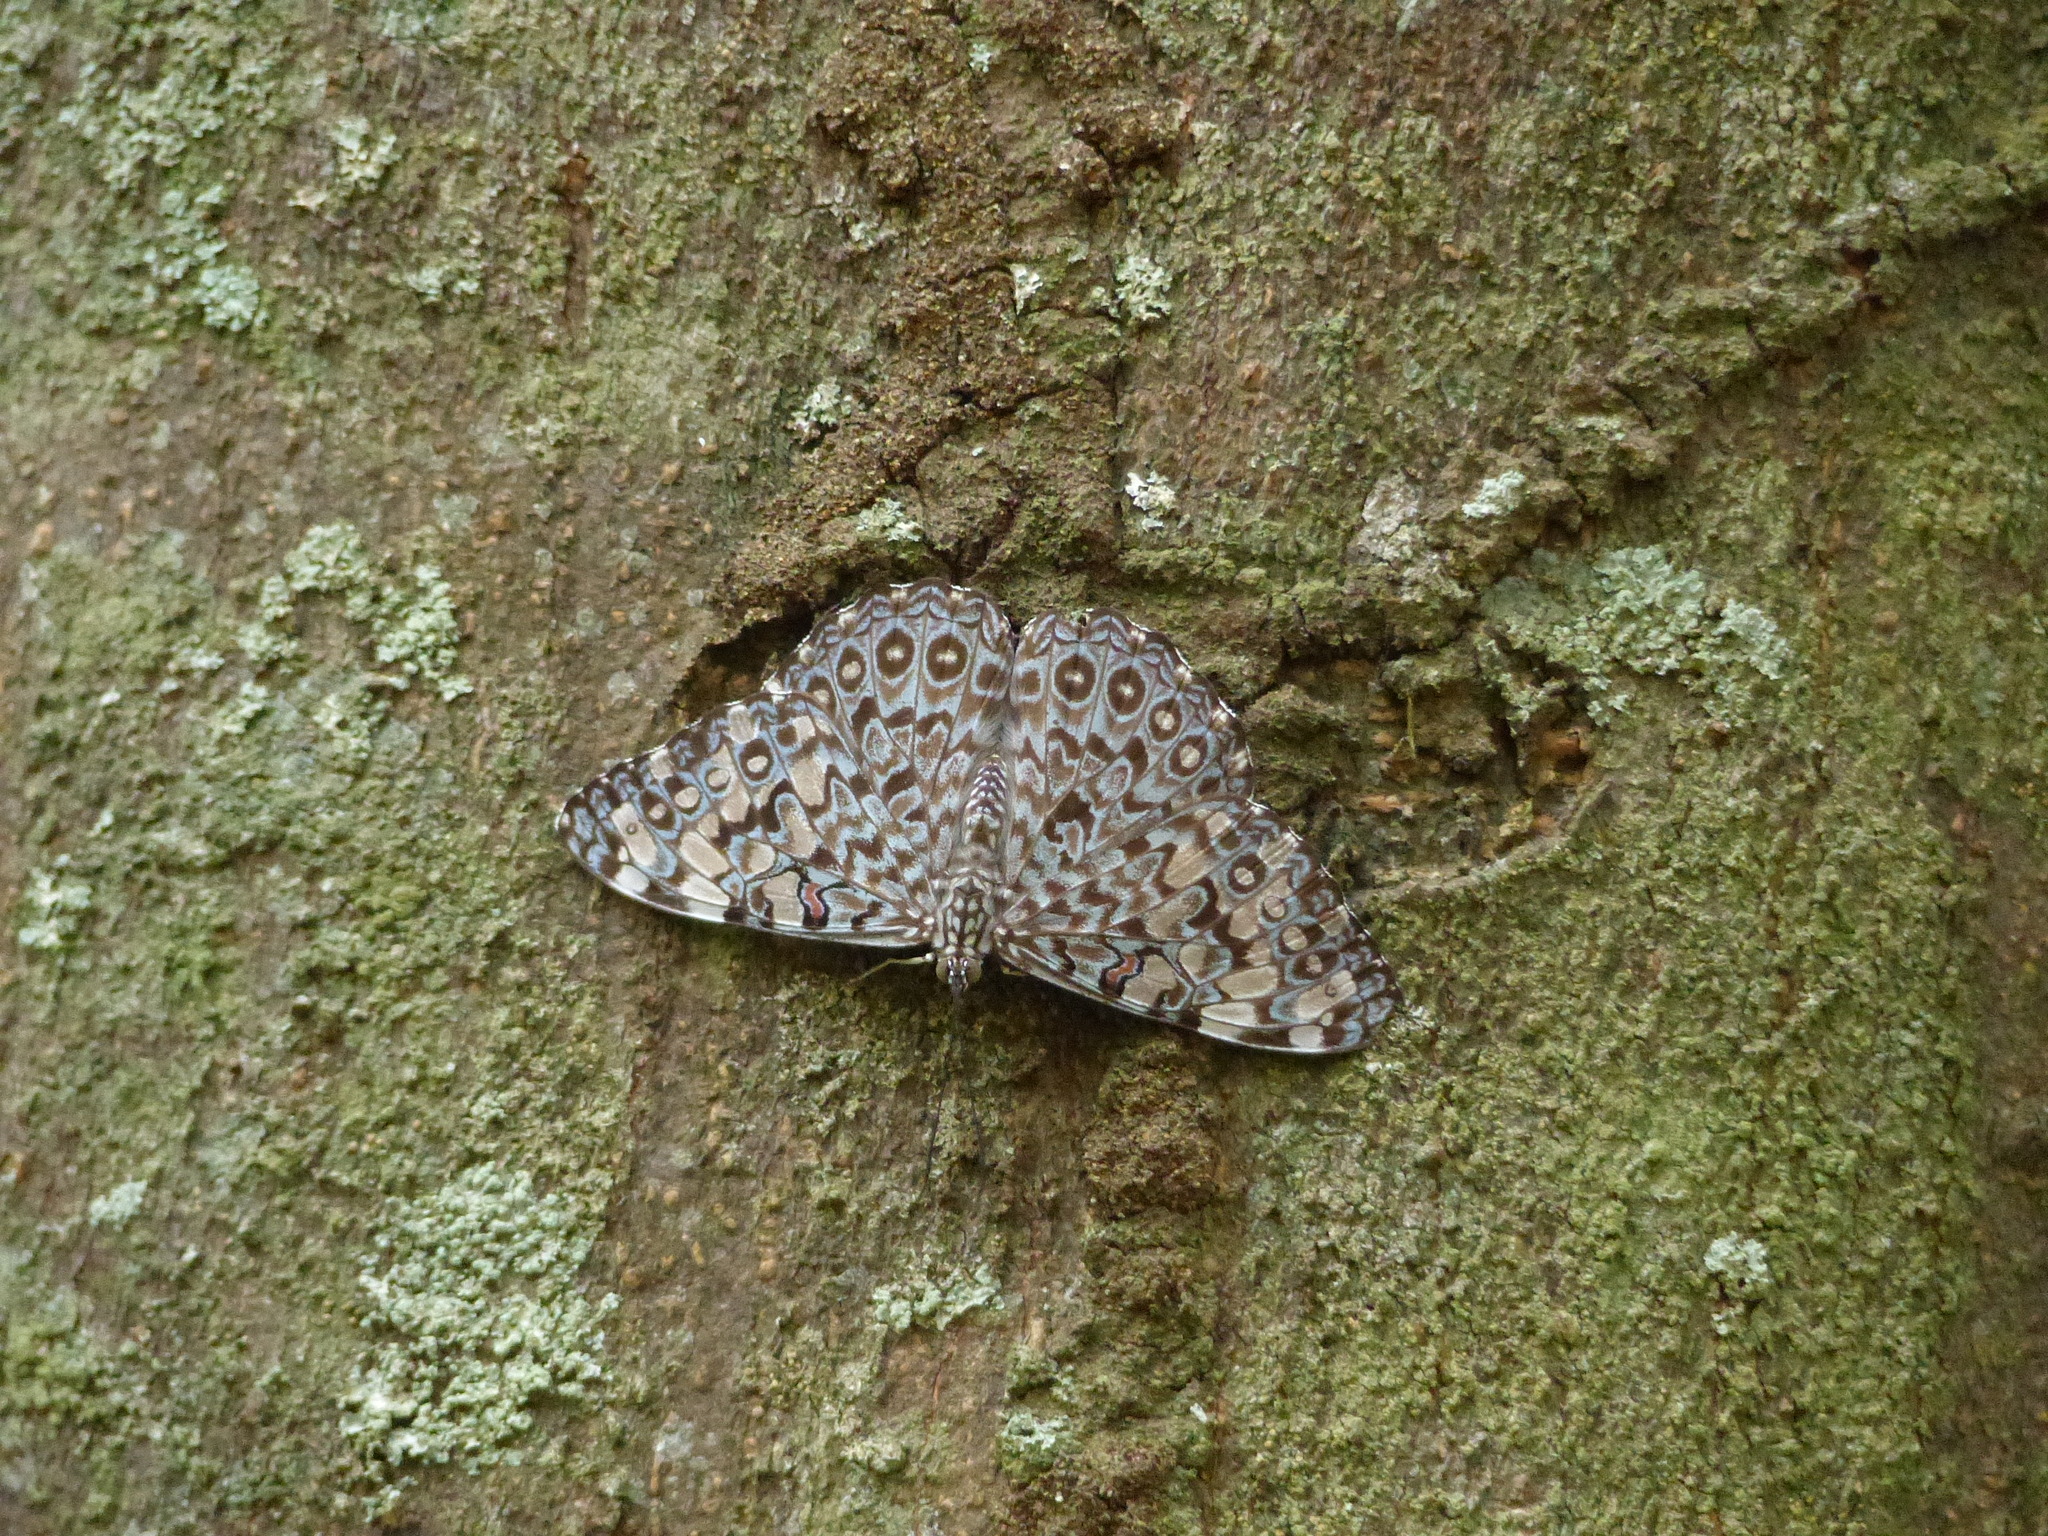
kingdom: Animalia
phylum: Arthropoda
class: Insecta
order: Lepidoptera
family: Nymphalidae
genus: Hamadryas
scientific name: Hamadryas feronia
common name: Variable cracker
